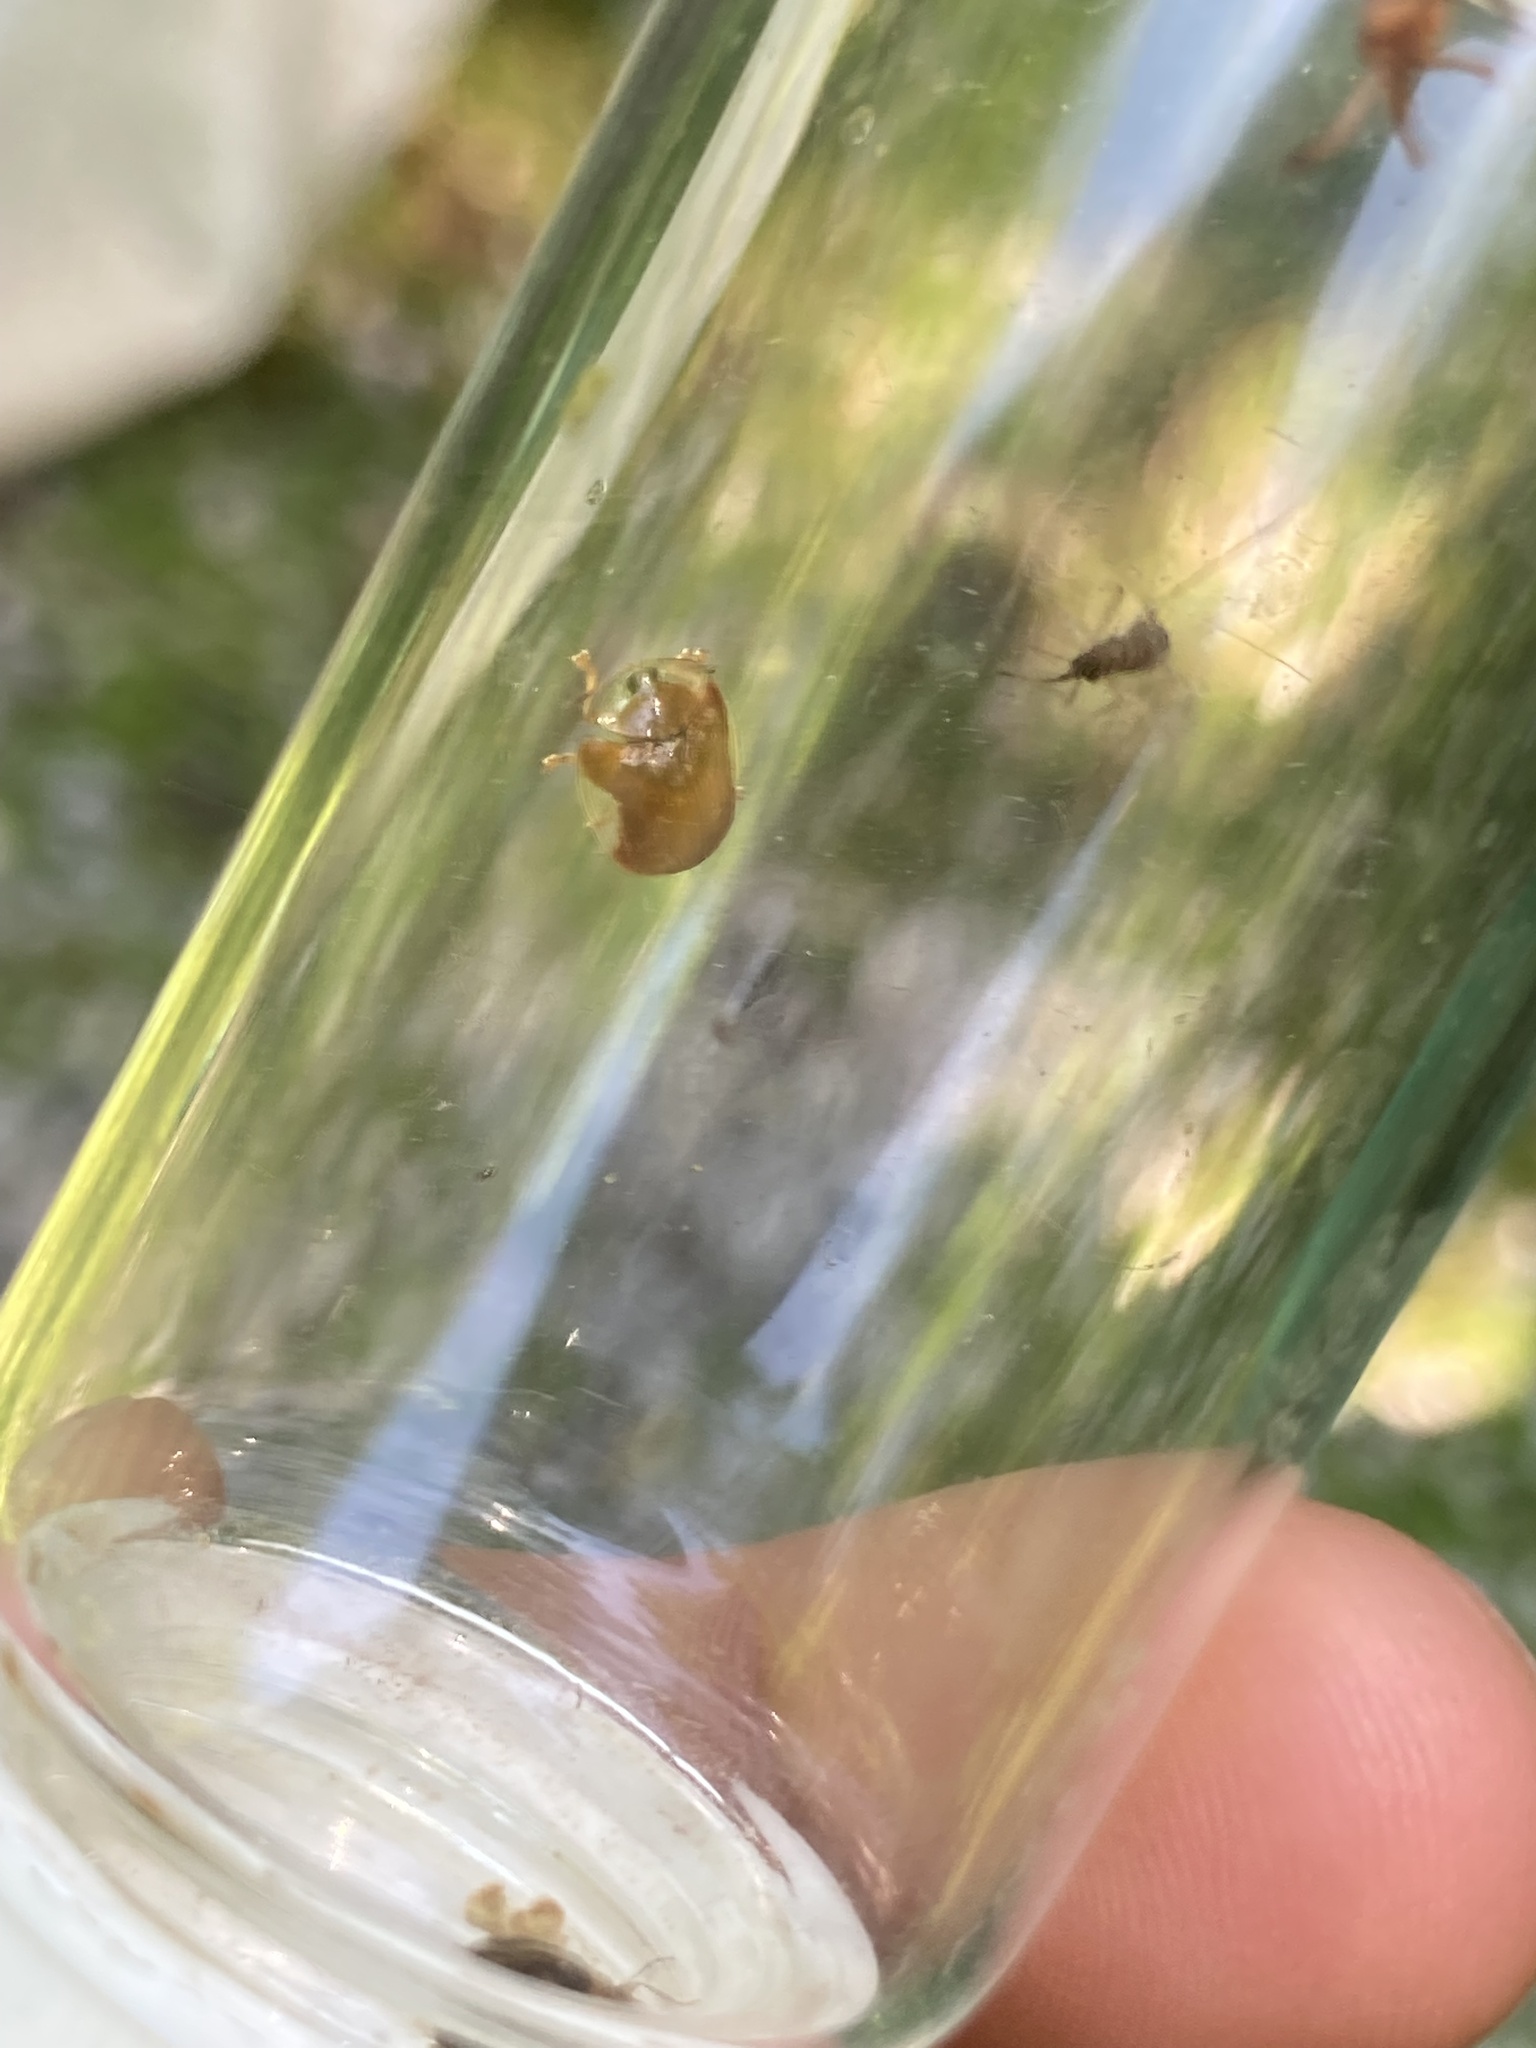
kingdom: Animalia
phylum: Arthropoda
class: Insecta
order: Coleoptera
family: Chrysomelidae
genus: Charidotella
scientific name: Charidotella purpurata
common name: Small orange tortoise beetle
